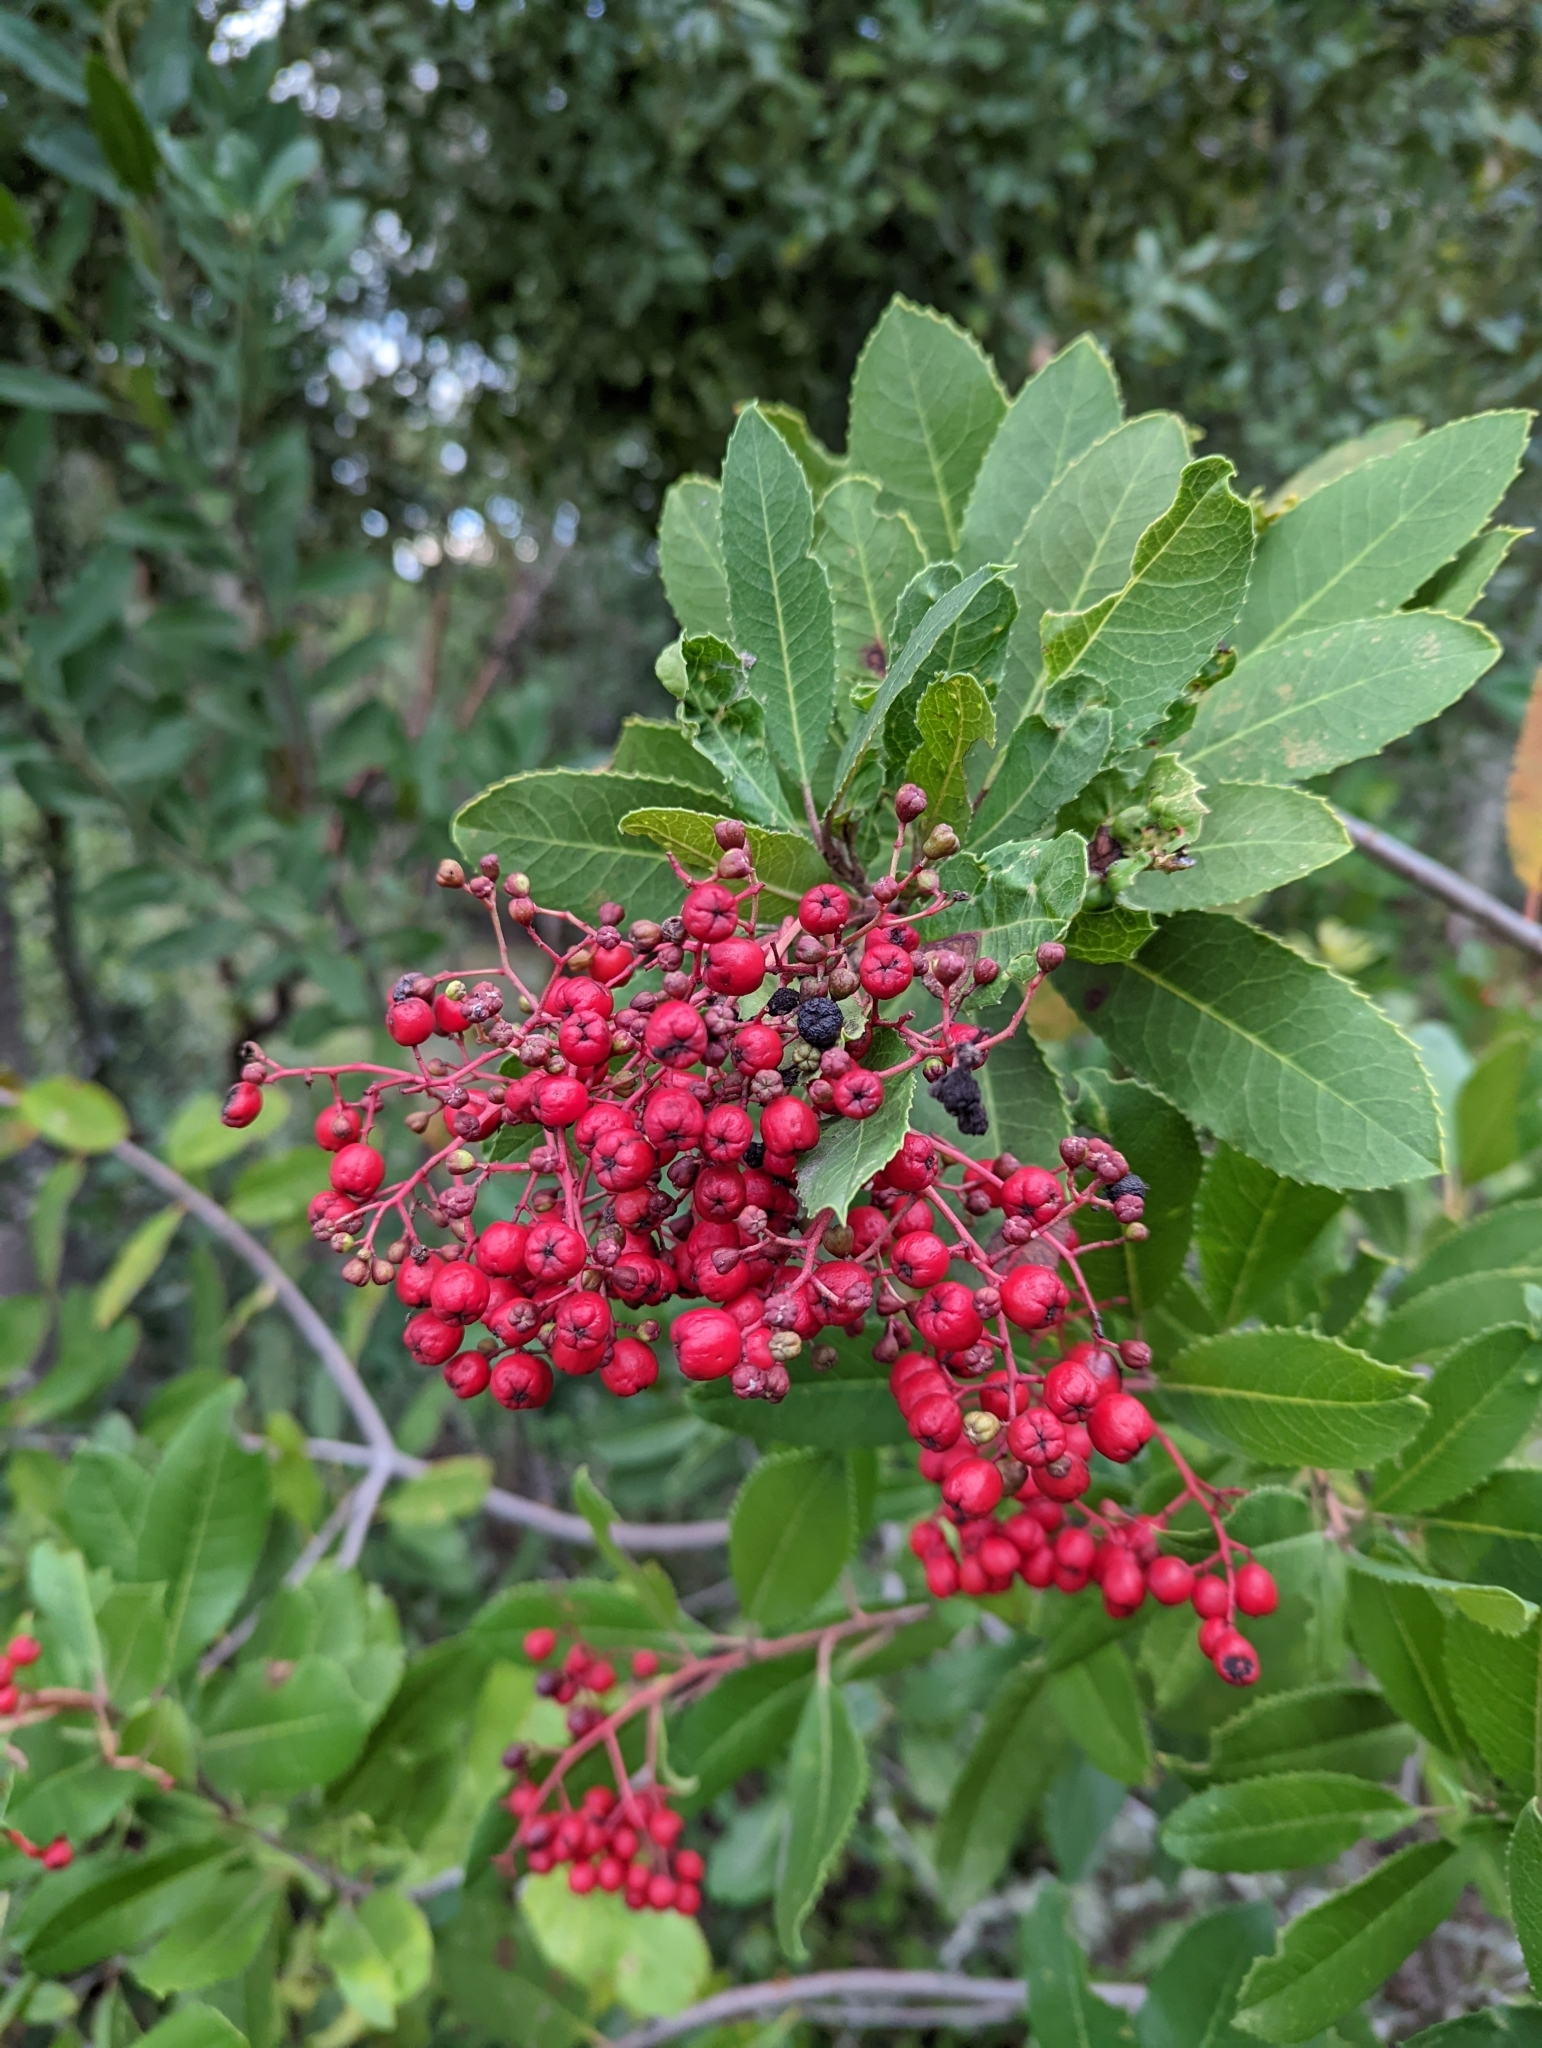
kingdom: Plantae
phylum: Tracheophyta
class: Magnoliopsida
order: Rosales
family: Rosaceae
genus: Heteromeles
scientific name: Heteromeles arbutifolia
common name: California-holly
